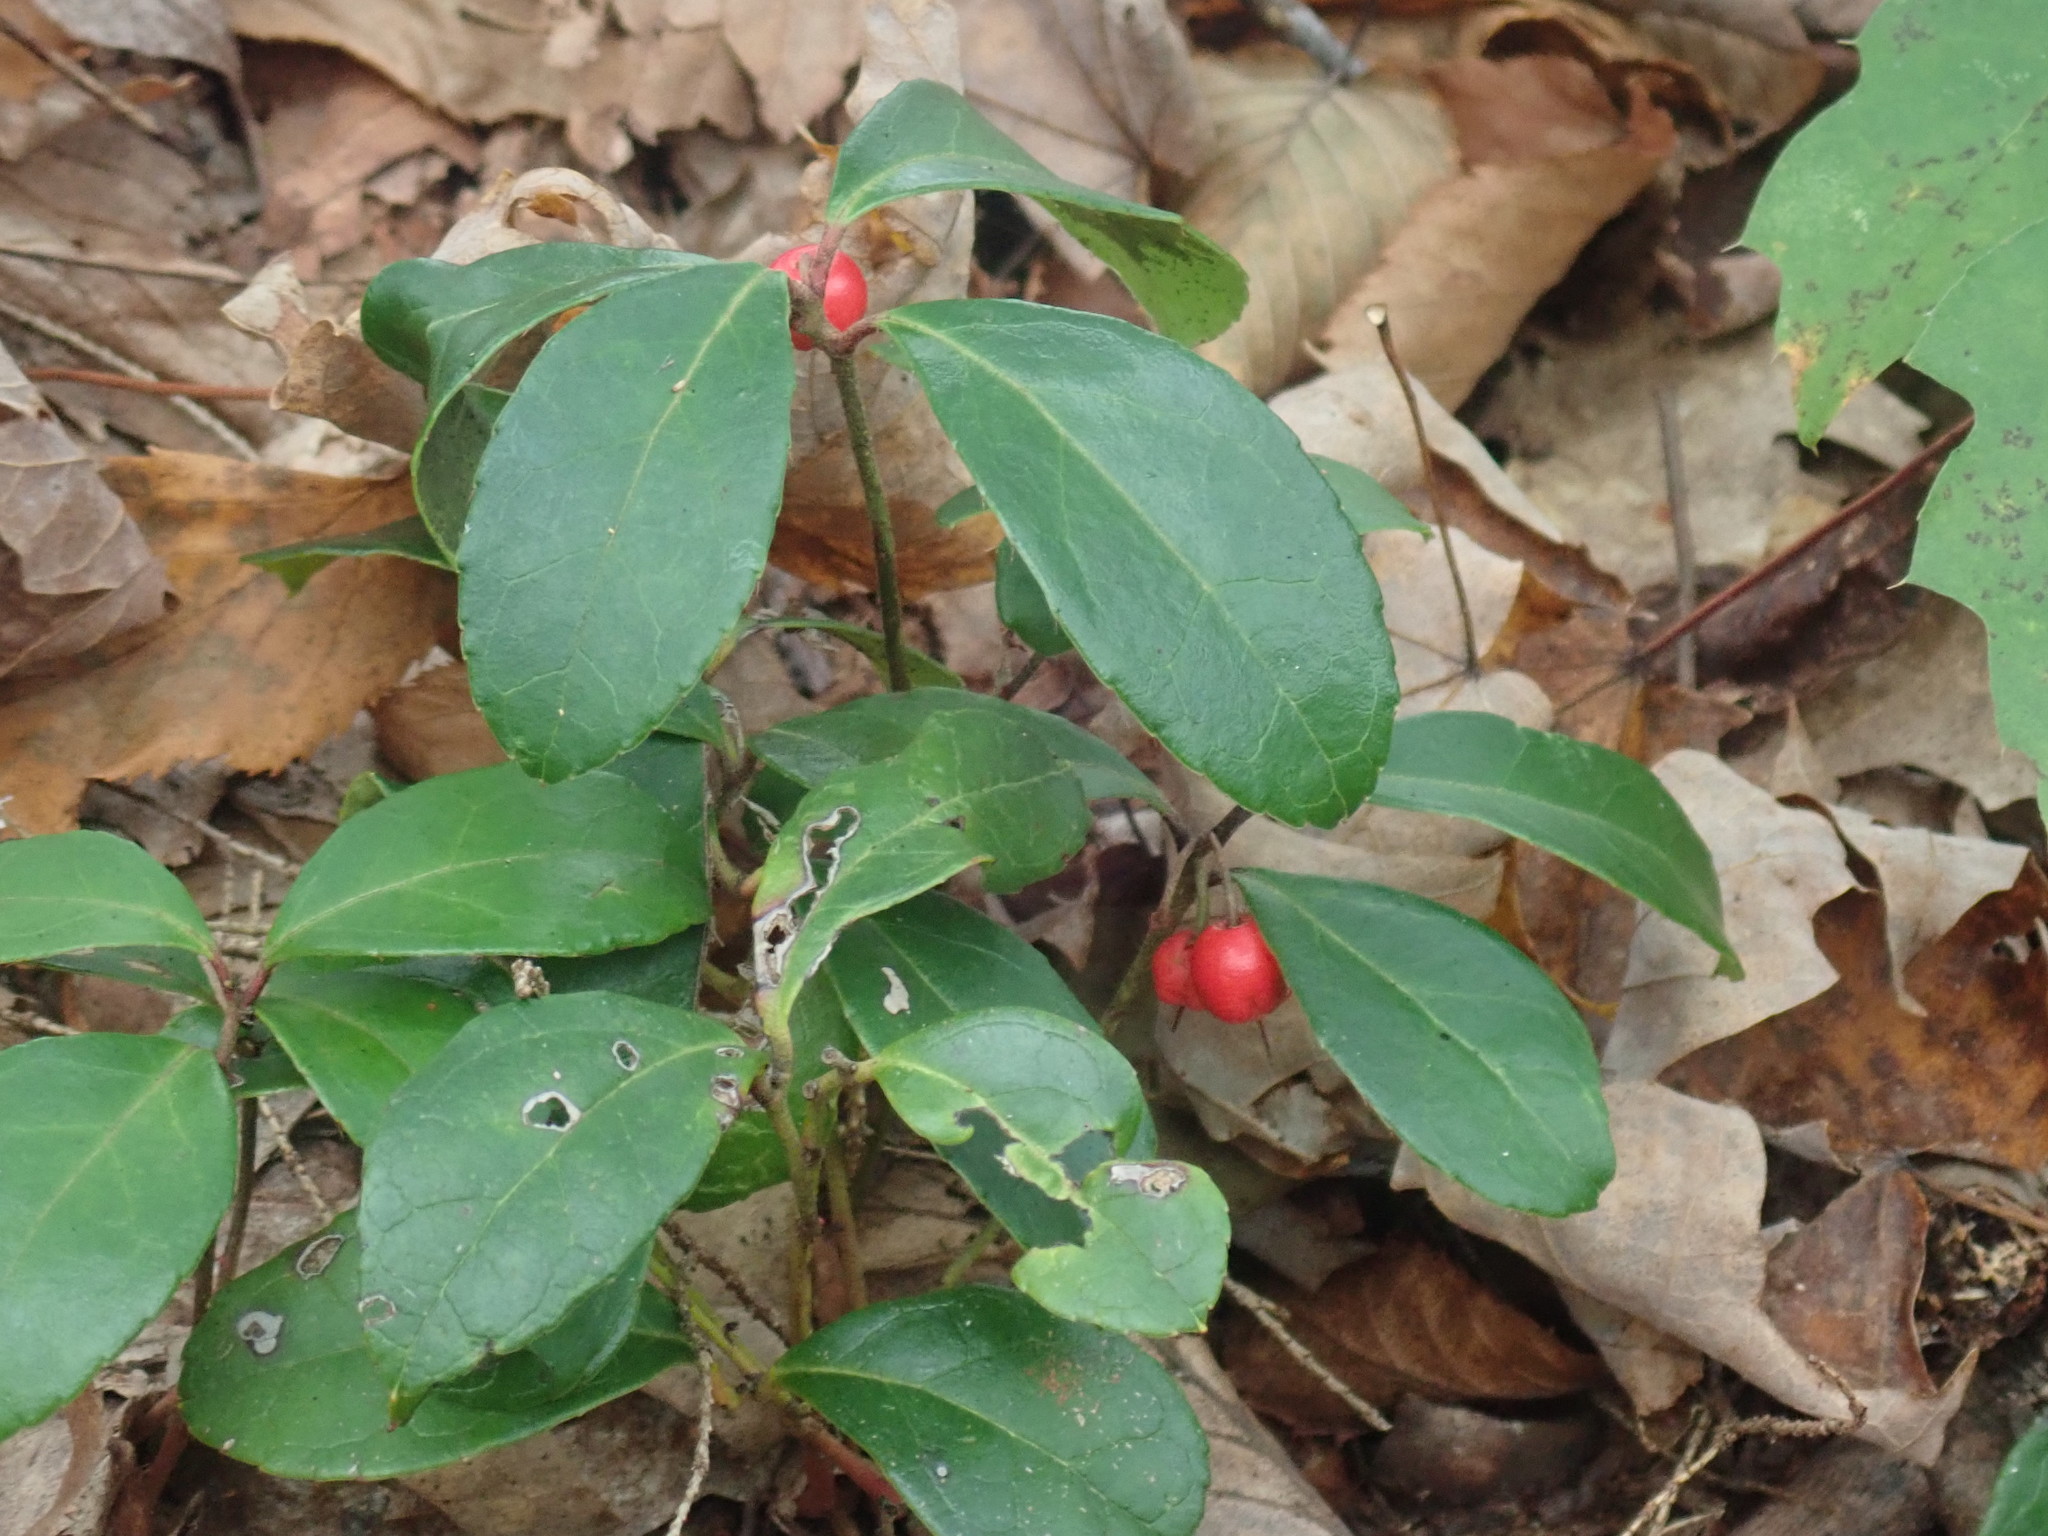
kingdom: Plantae
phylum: Tracheophyta
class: Magnoliopsida
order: Ericales
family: Ericaceae
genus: Gaultheria
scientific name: Gaultheria procumbens
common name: Checkerberry
